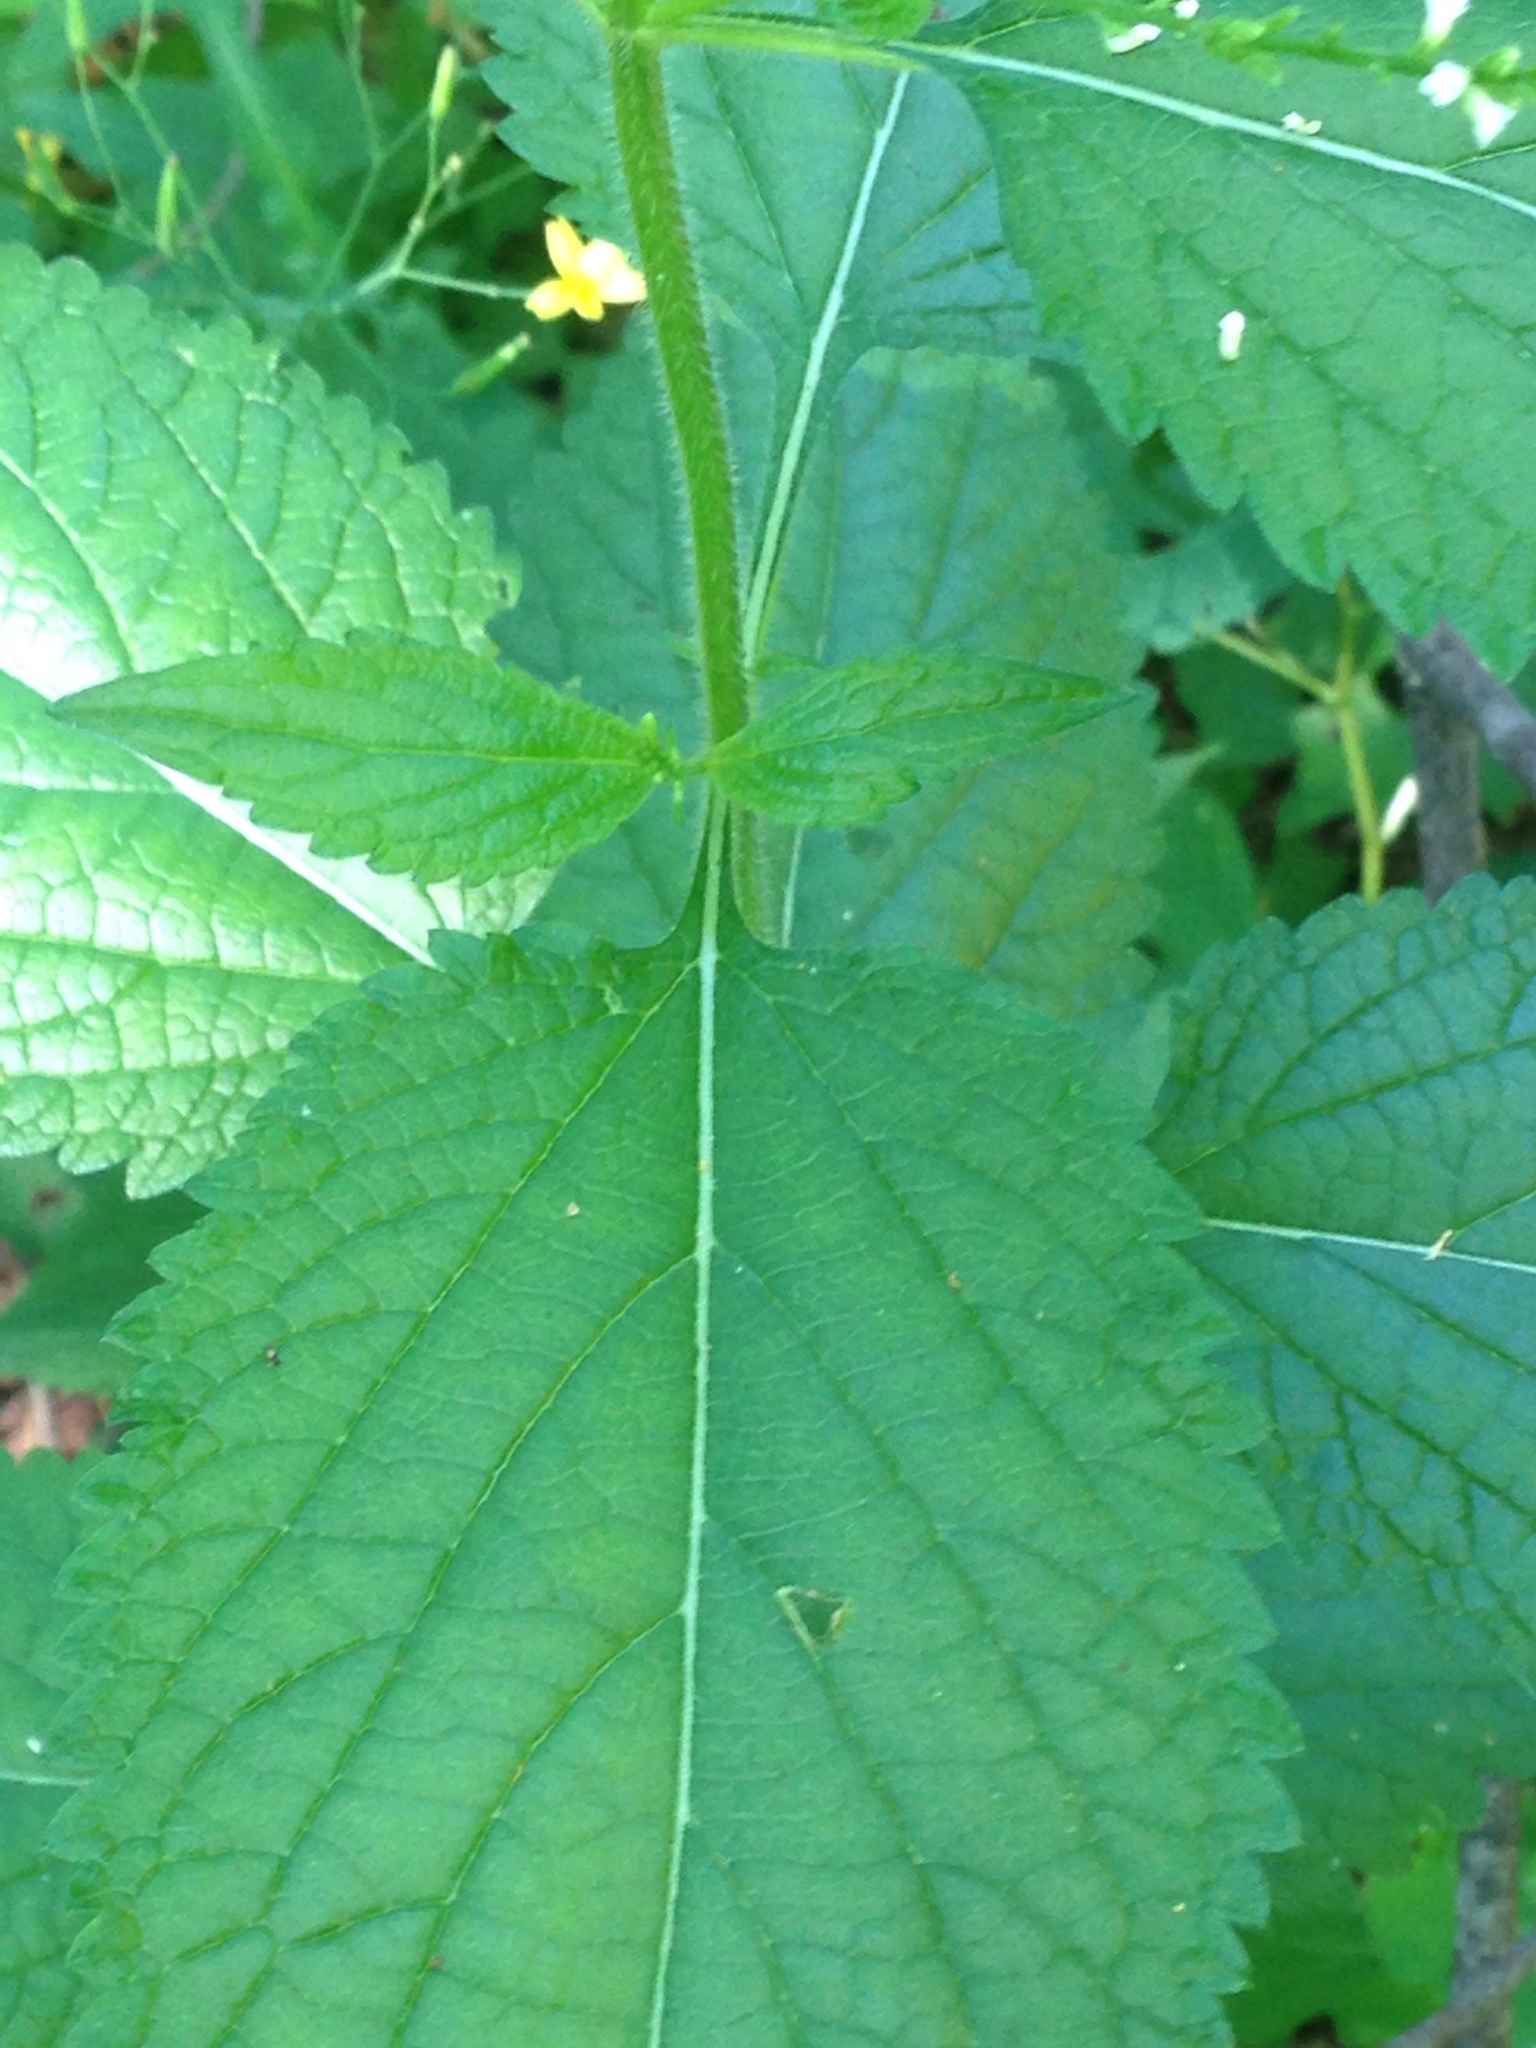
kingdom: Plantae
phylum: Tracheophyta
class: Magnoliopsida
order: Lamiales
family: Verbenaceae
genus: Verbena
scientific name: Verbena urticifolia
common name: Nettle-leaved vervain
